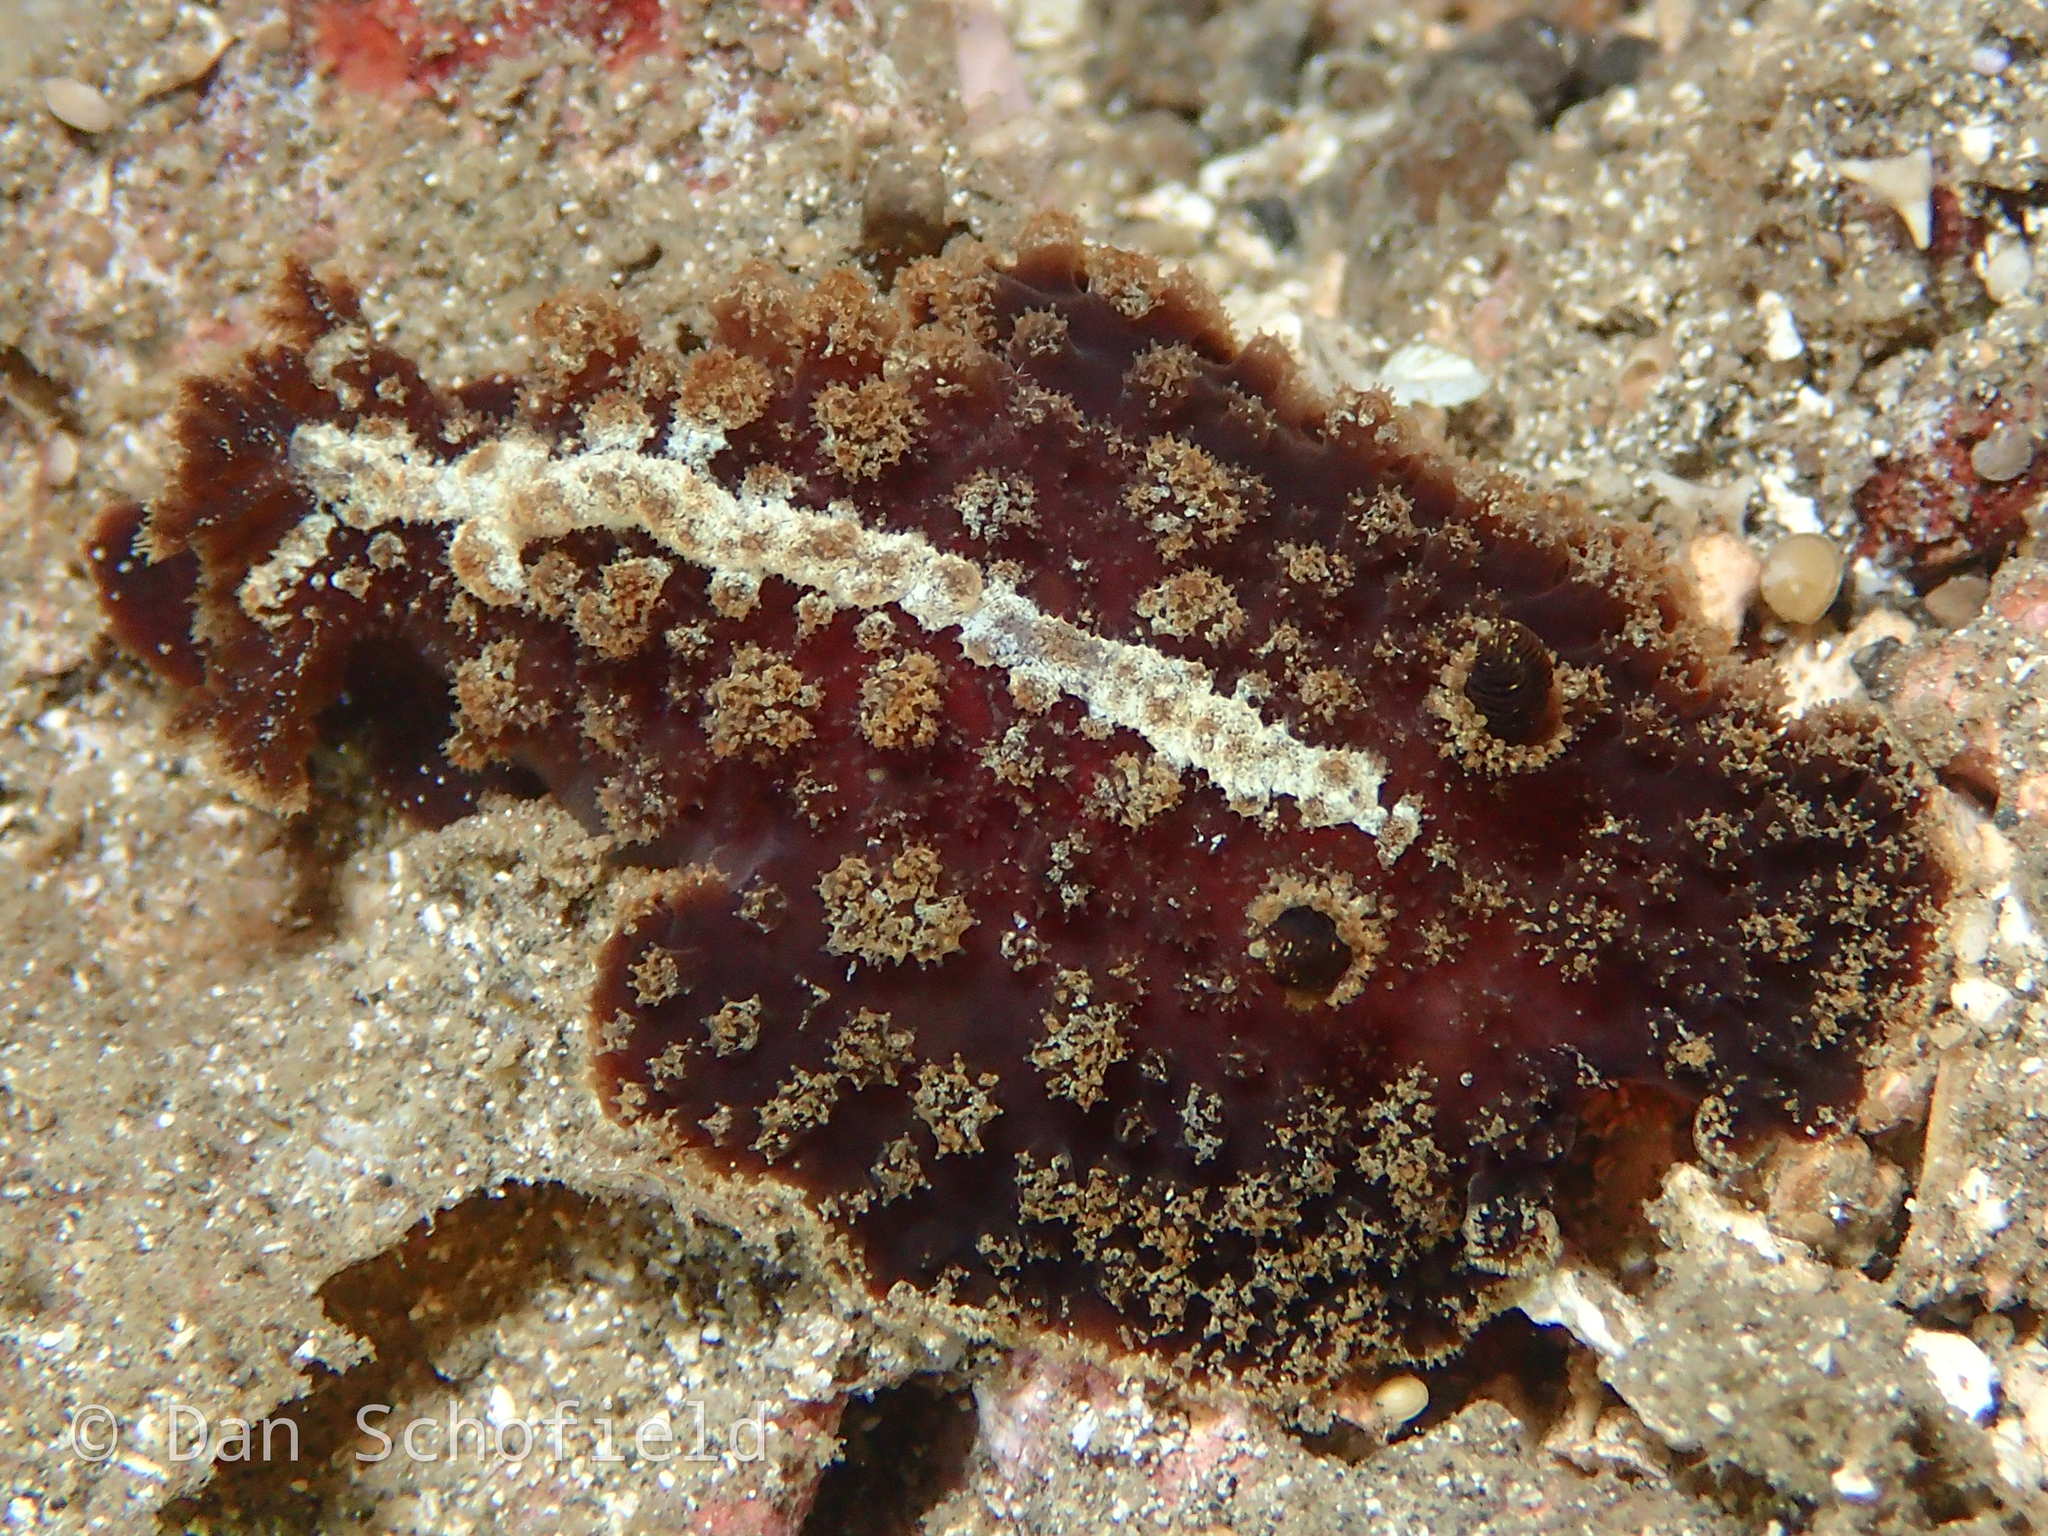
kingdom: Animalia
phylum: Mollusca
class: Gastropoda
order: Nudibranchia
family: Discodorididae
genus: Atagema
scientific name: Atagema intecta
